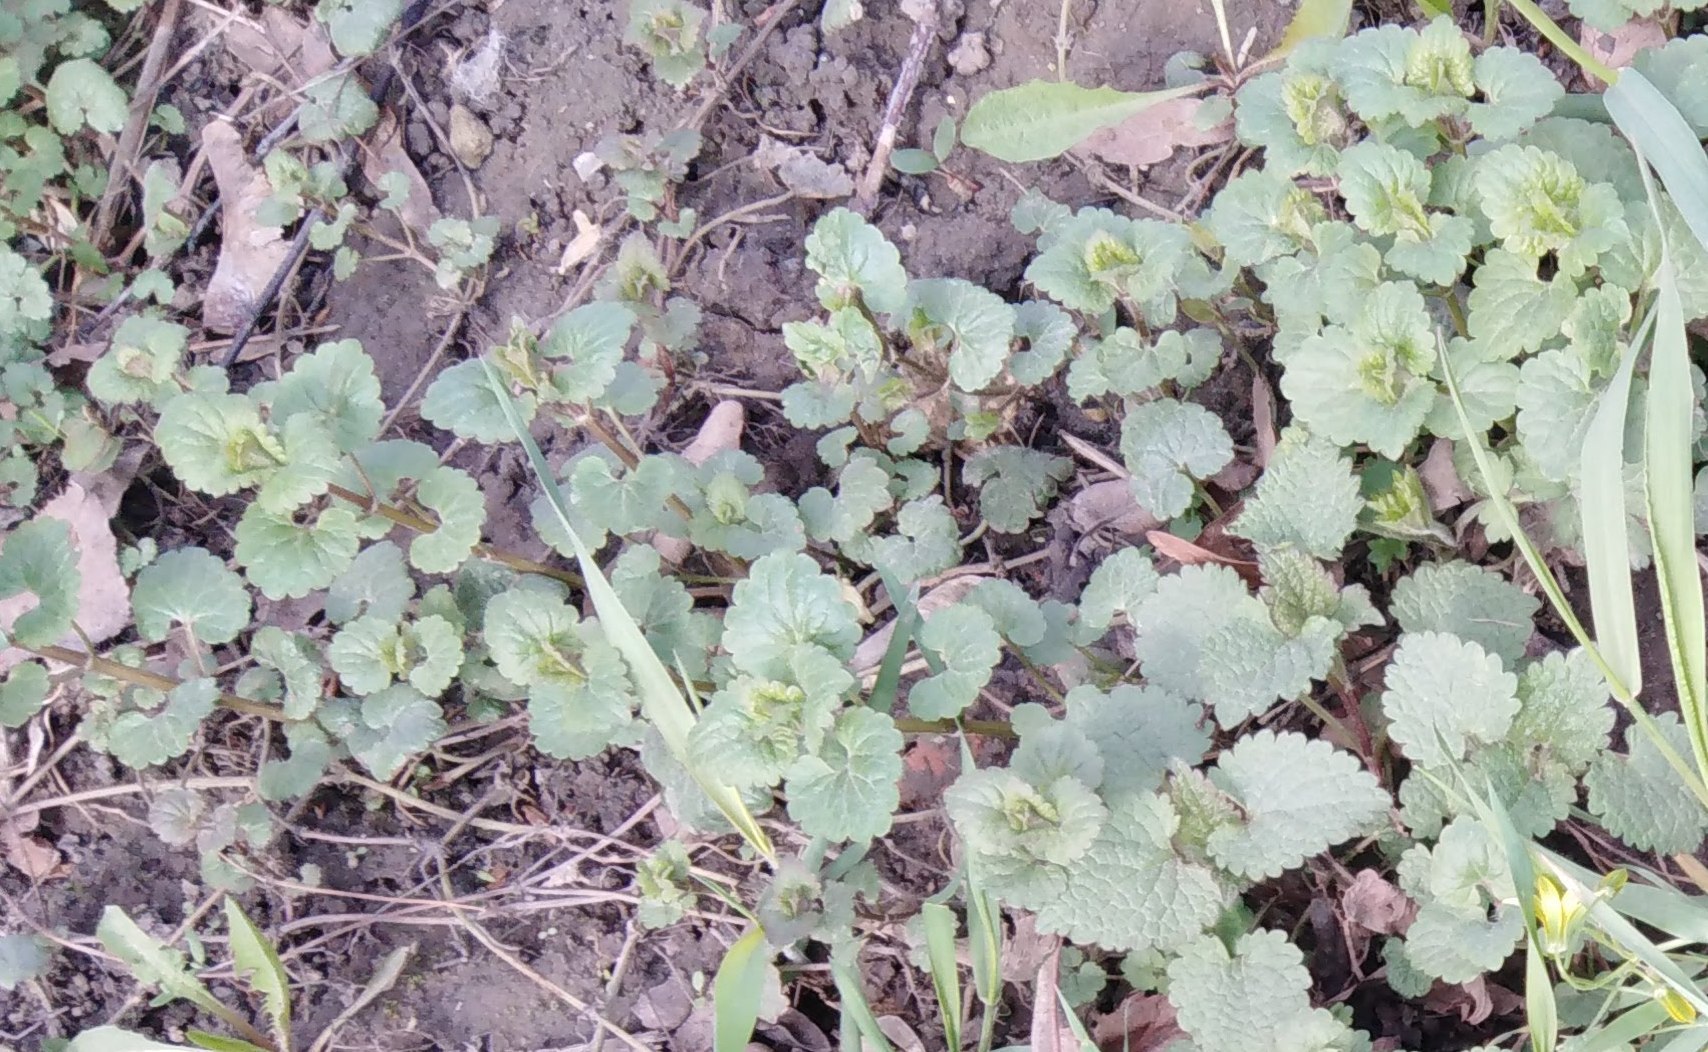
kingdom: Plantae
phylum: Tracheophyta
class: Magnoliopsida
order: Lamiales
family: Lamiaceae
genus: Glechoma
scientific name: Glechoma hederacea
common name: Ground ivy
